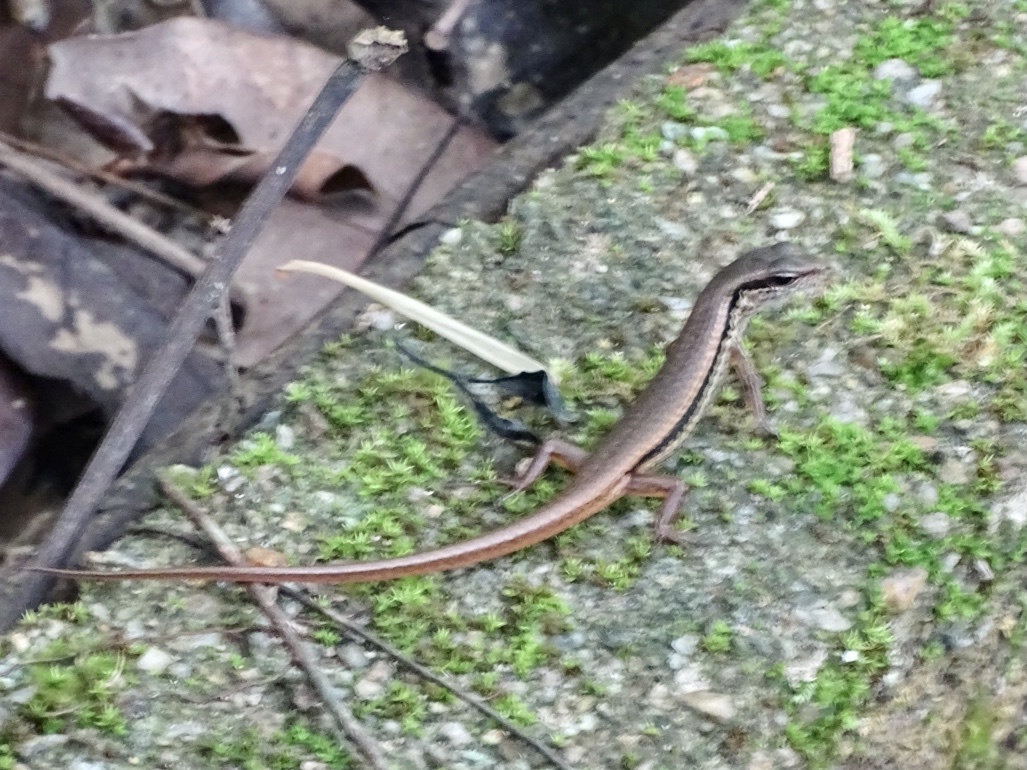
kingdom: Animalia
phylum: Chordata
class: Squamata
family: Scincidae
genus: Sphenomorphus
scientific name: Sphenomorphus indicus
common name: Himalayan forest skink
